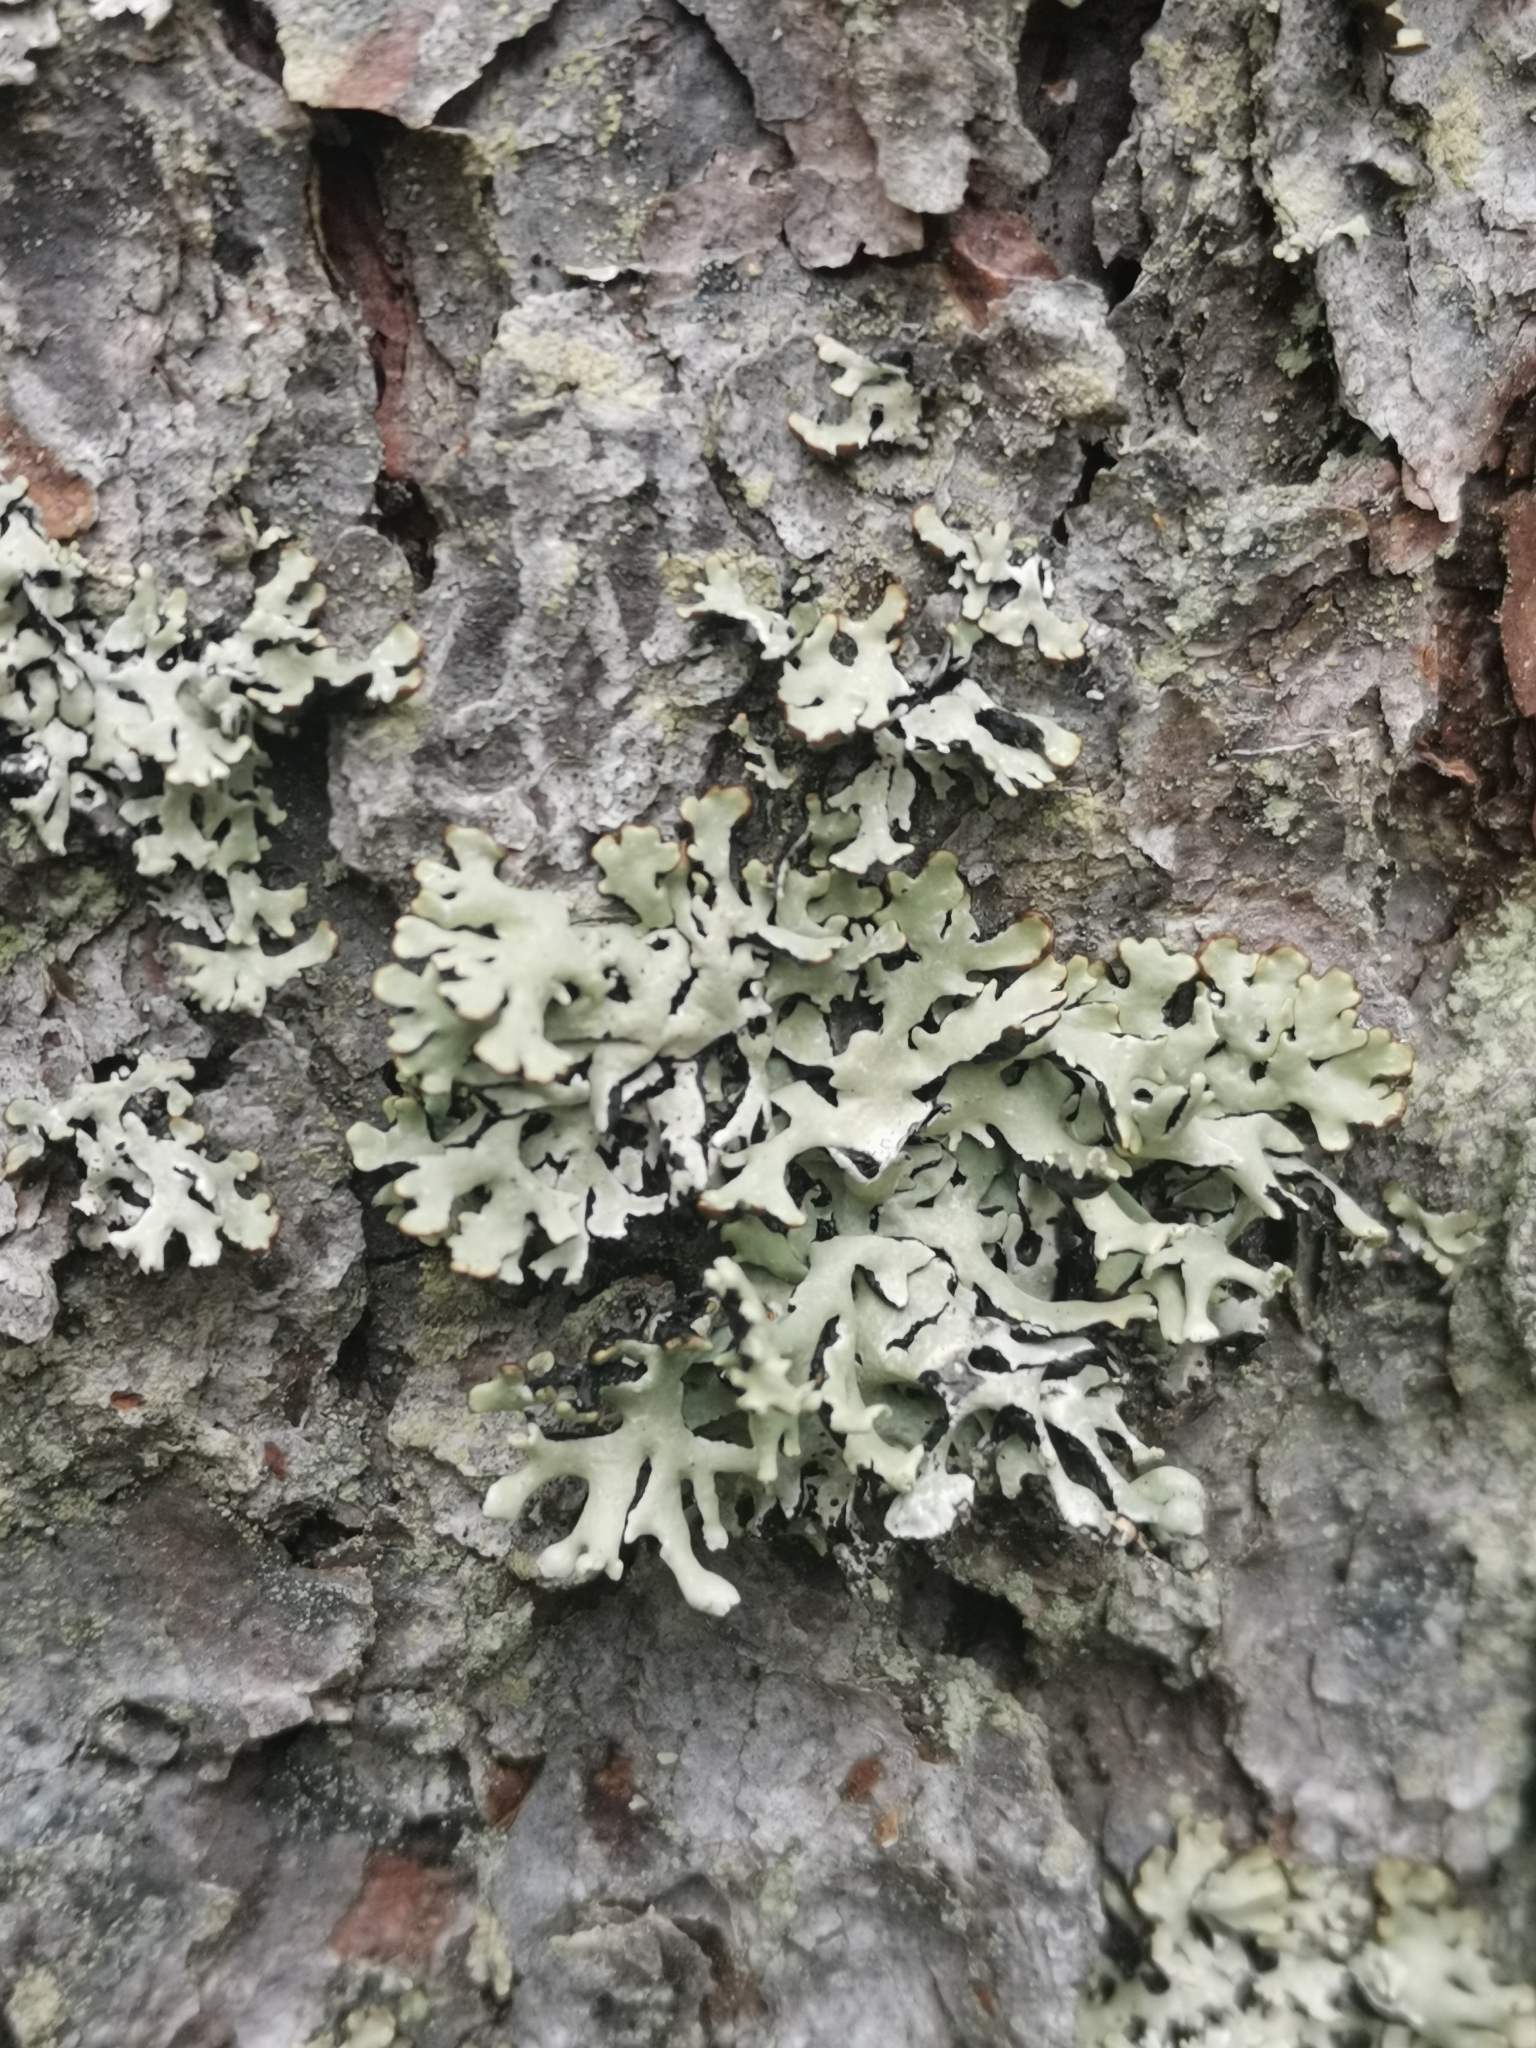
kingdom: Fungi
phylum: Ascomycota
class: Lecanoromycetes
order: Lecanorales
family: Parmeliaceae
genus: Hypogymnia
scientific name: Hypogymnia physodes
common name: Dark crottle
